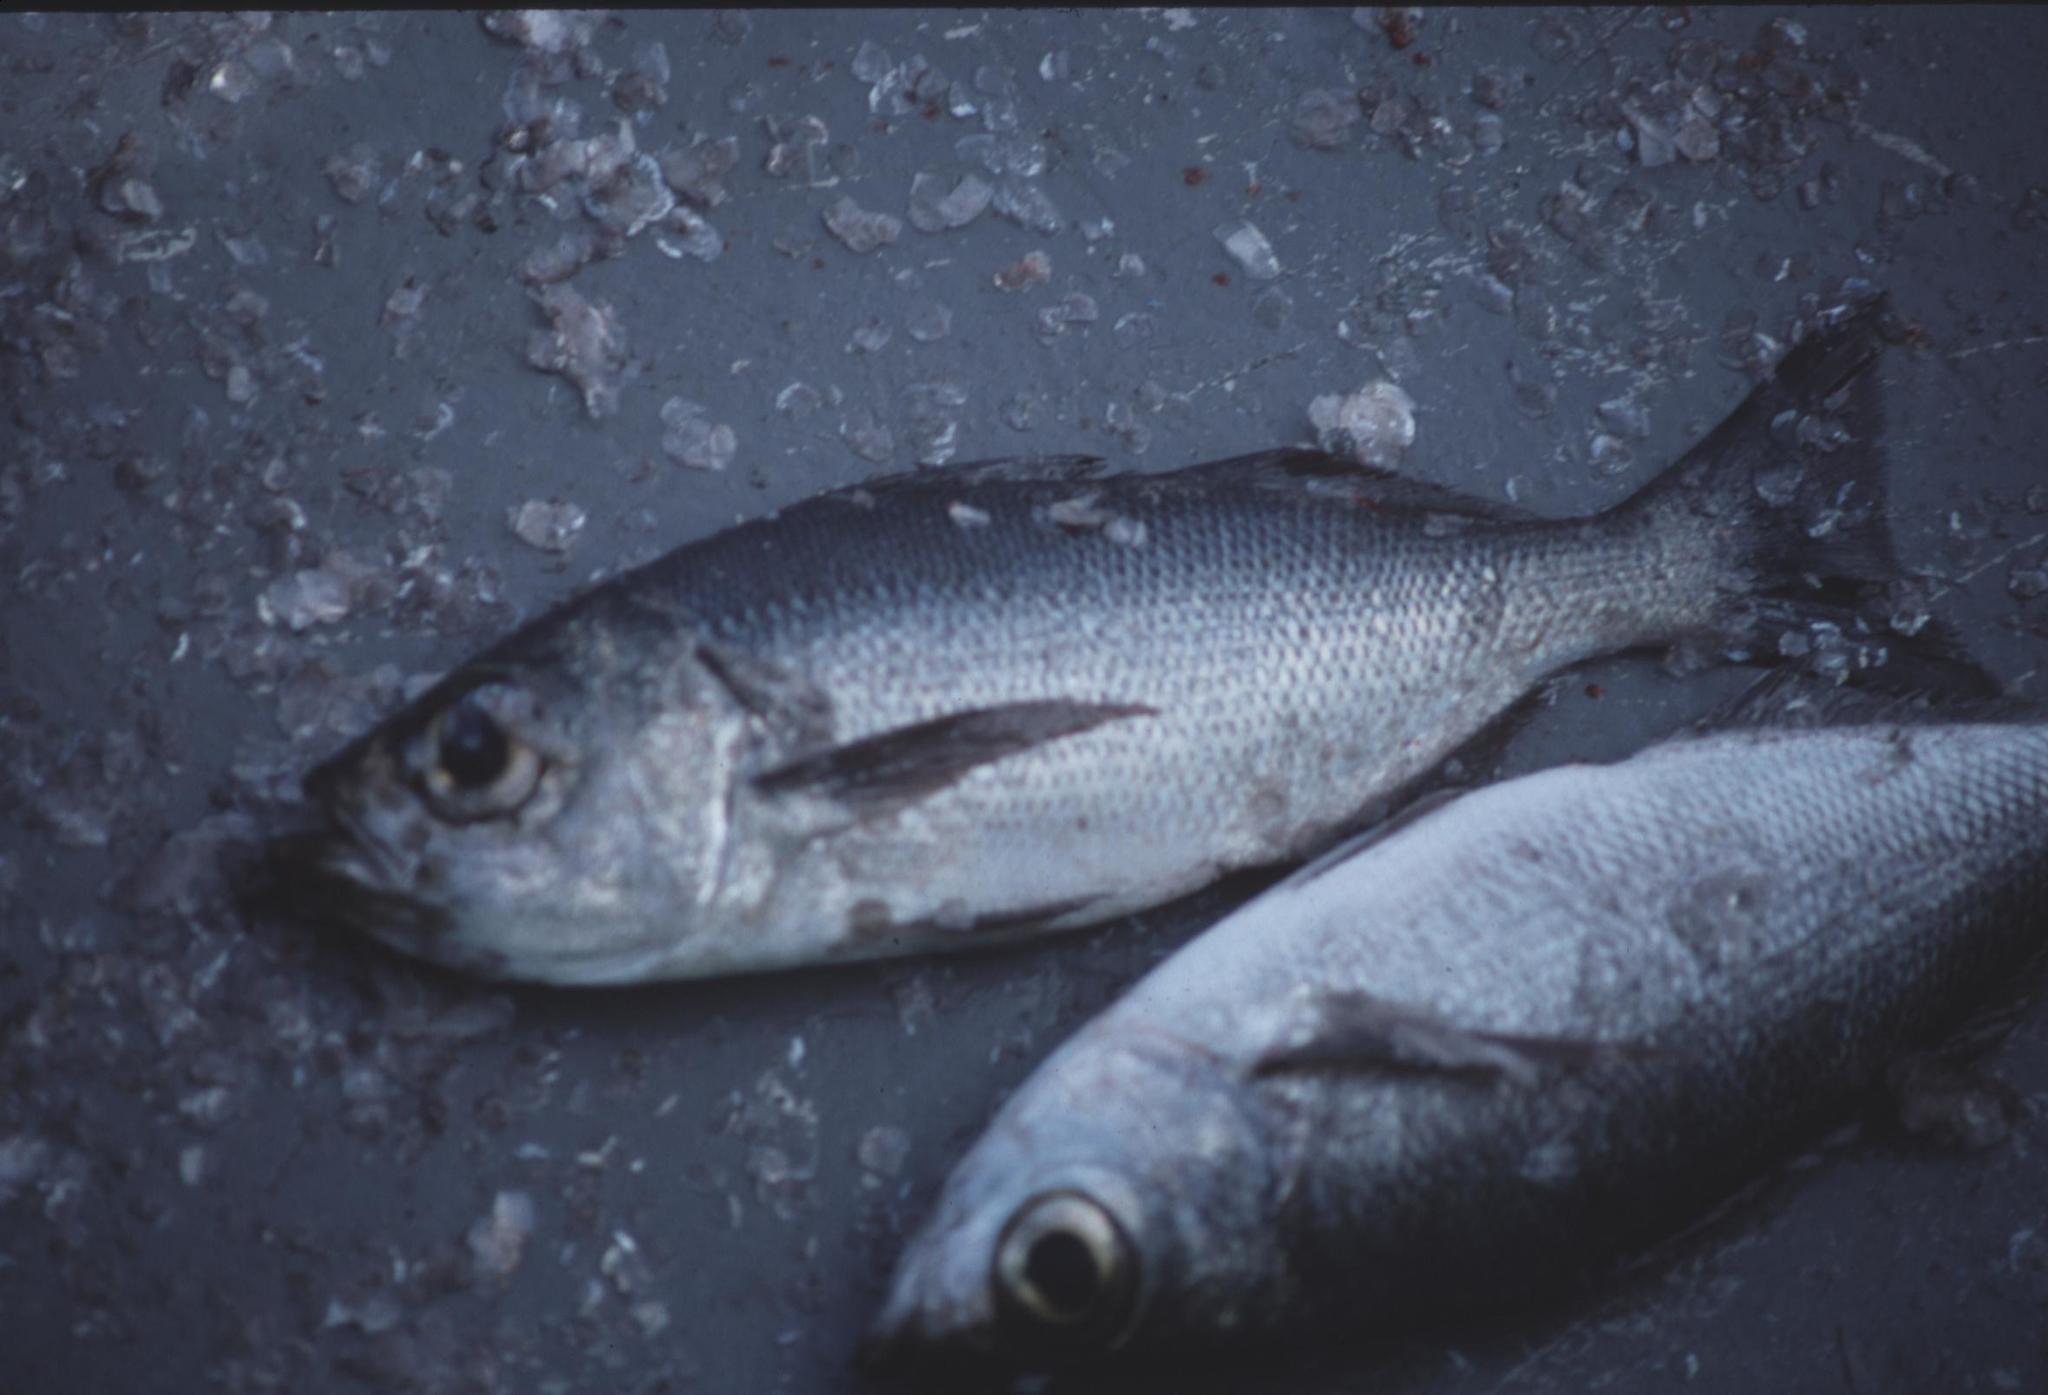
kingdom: Animalia
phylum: Chordata
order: Perciformes
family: Haemulidae
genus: Xenichthys
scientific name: Xenichthys agassizii
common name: White salema
